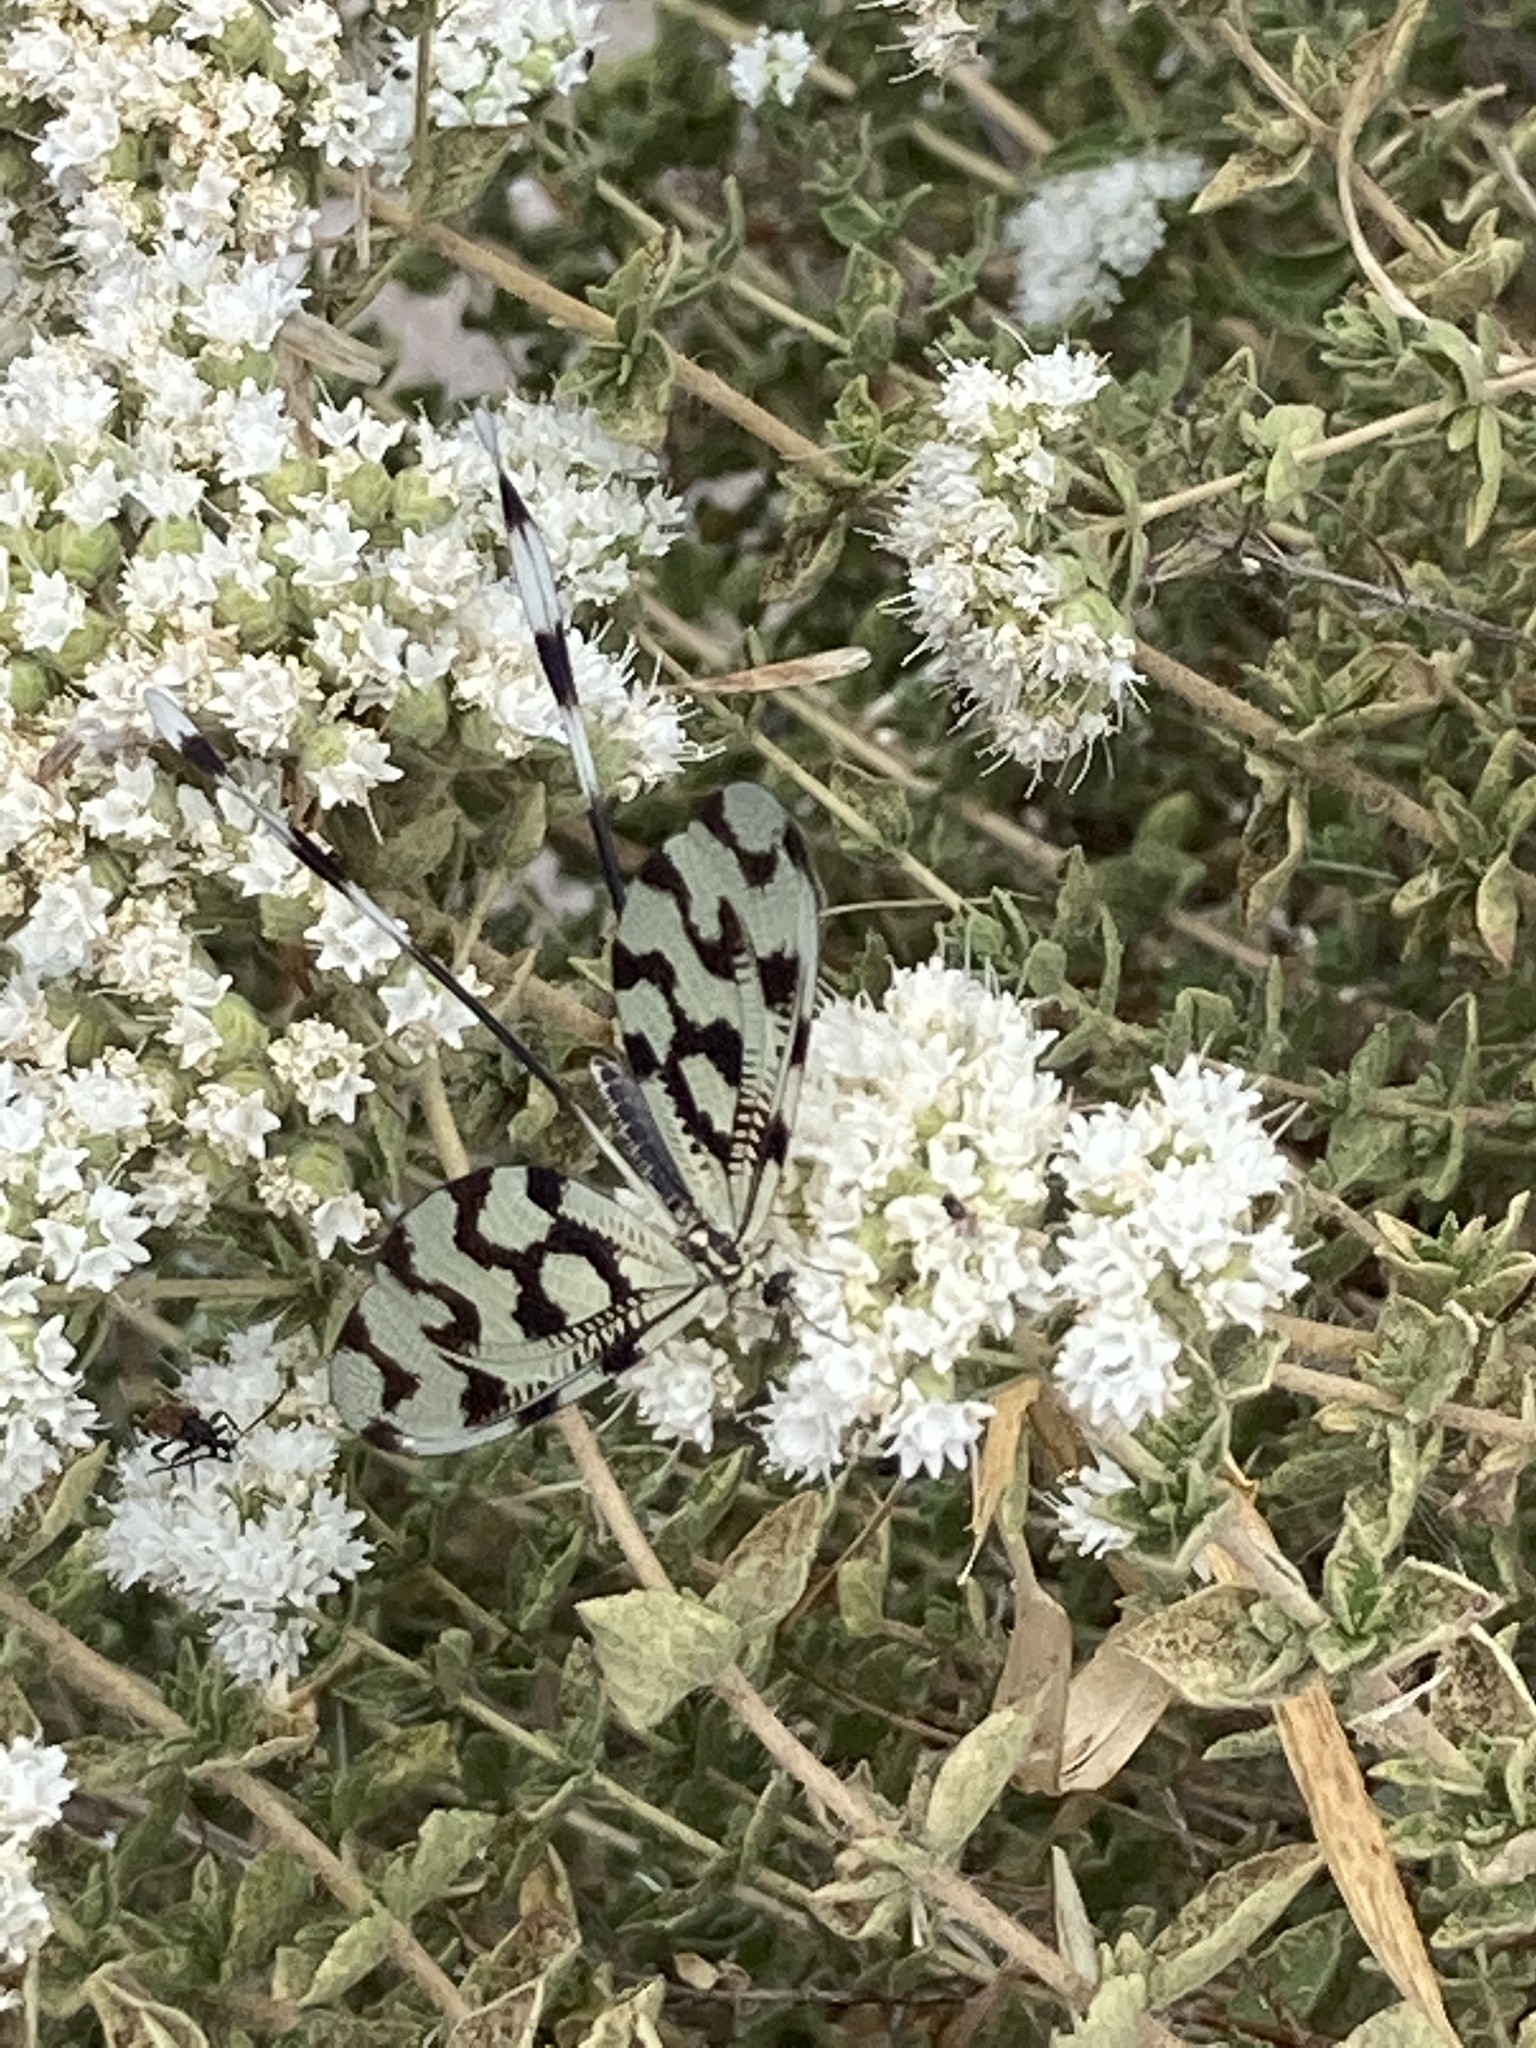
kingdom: Animalia
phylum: Arthropoda
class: Insecta
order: Neuroptera
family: Nemopteridae
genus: Nemoptera
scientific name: Nemoptera sinuata
